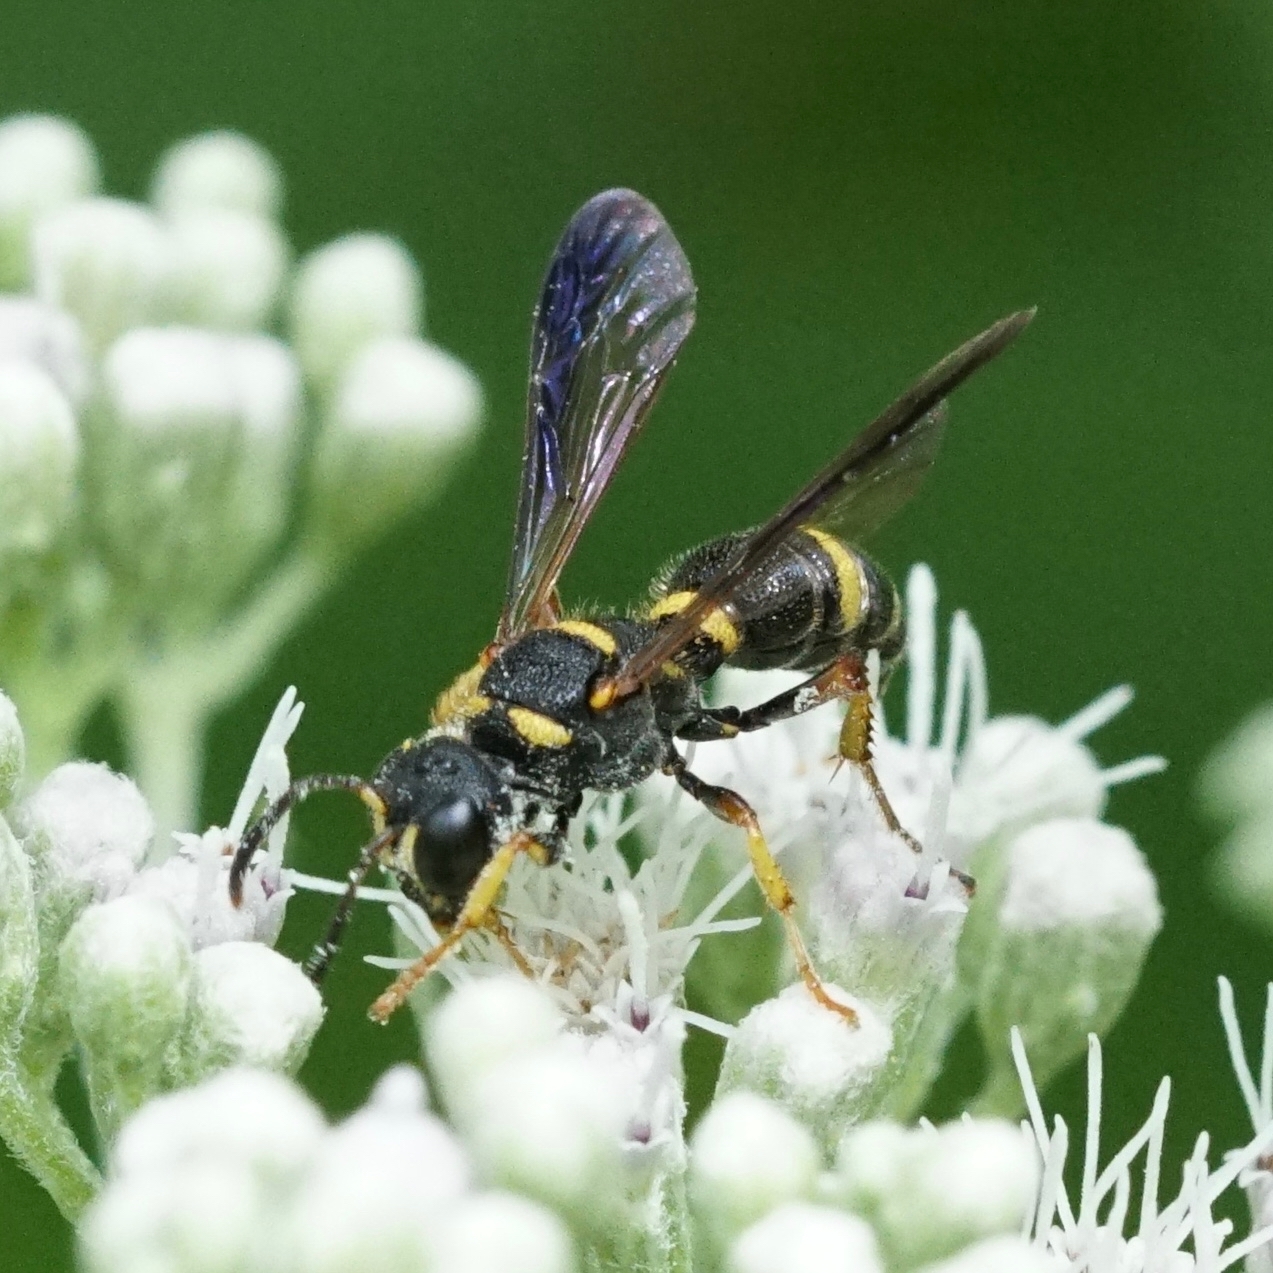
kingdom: Animalia
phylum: Arthropoda
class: Insecta
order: Hymenoptera
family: Crabronidae
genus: Cerceris
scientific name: Cerceris insolita
